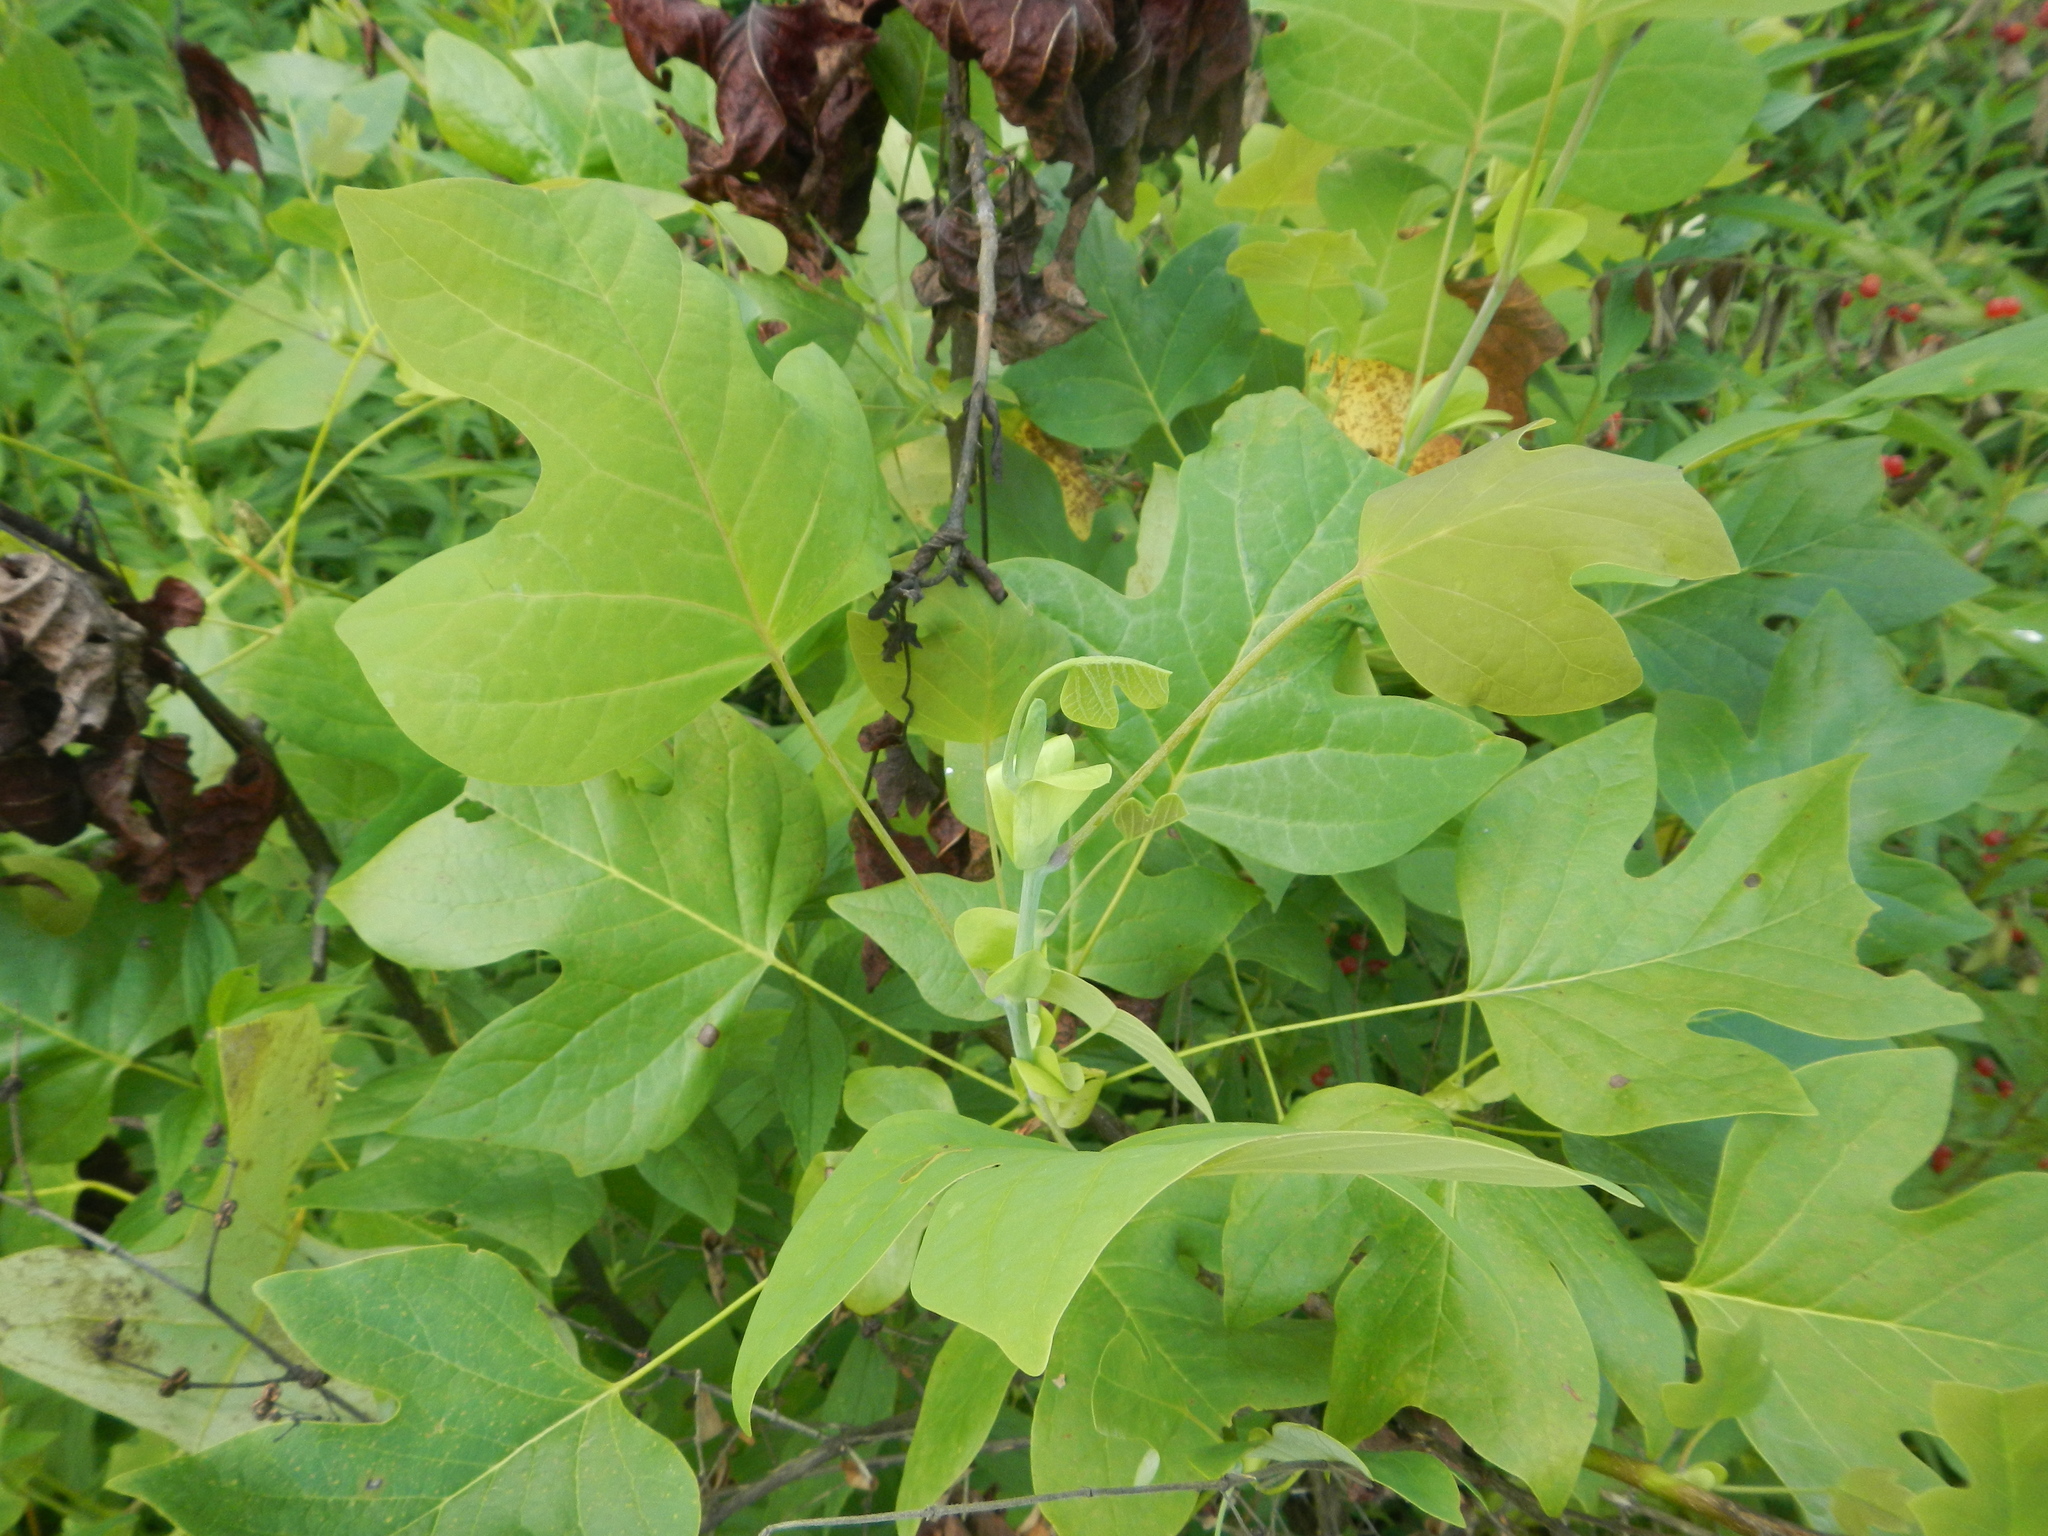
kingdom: Plantae
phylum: Tracheophyta
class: Magnoliopsida
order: Magnoliales
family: Magnoliaceae
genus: Liriodendron
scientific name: Liriodendron tulipifera
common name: Tulip tree
